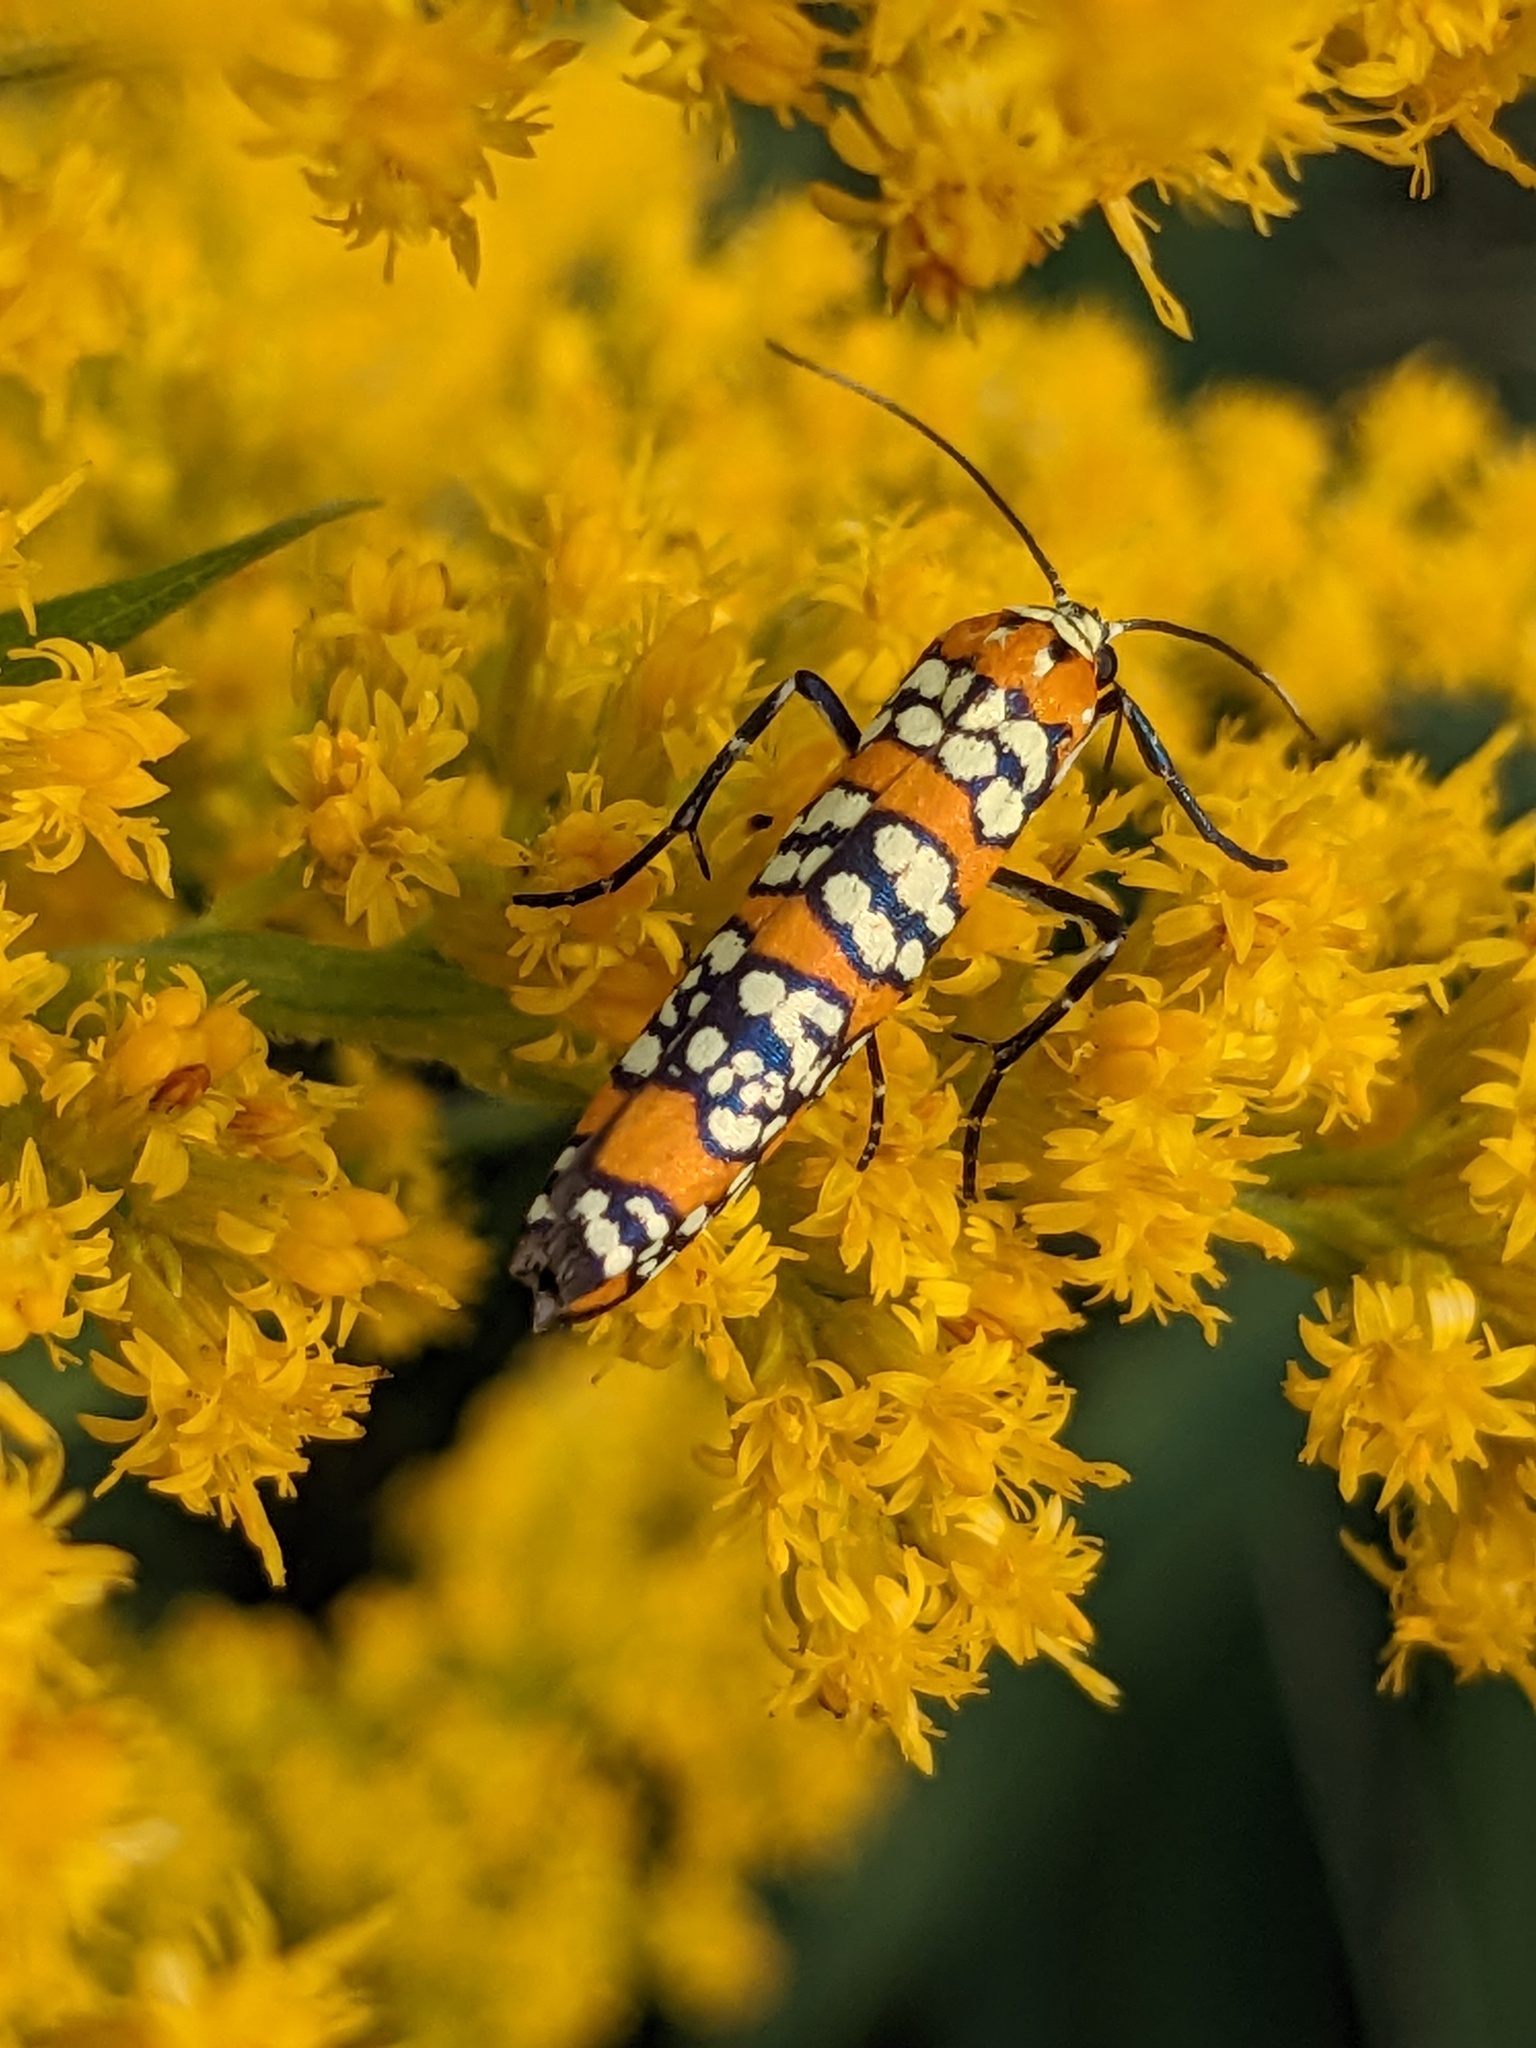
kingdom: Animalia
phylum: Arthropoda
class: Insecta
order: Lepidoptera
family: Attevidae
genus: Atteva
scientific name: Atteva punctella
